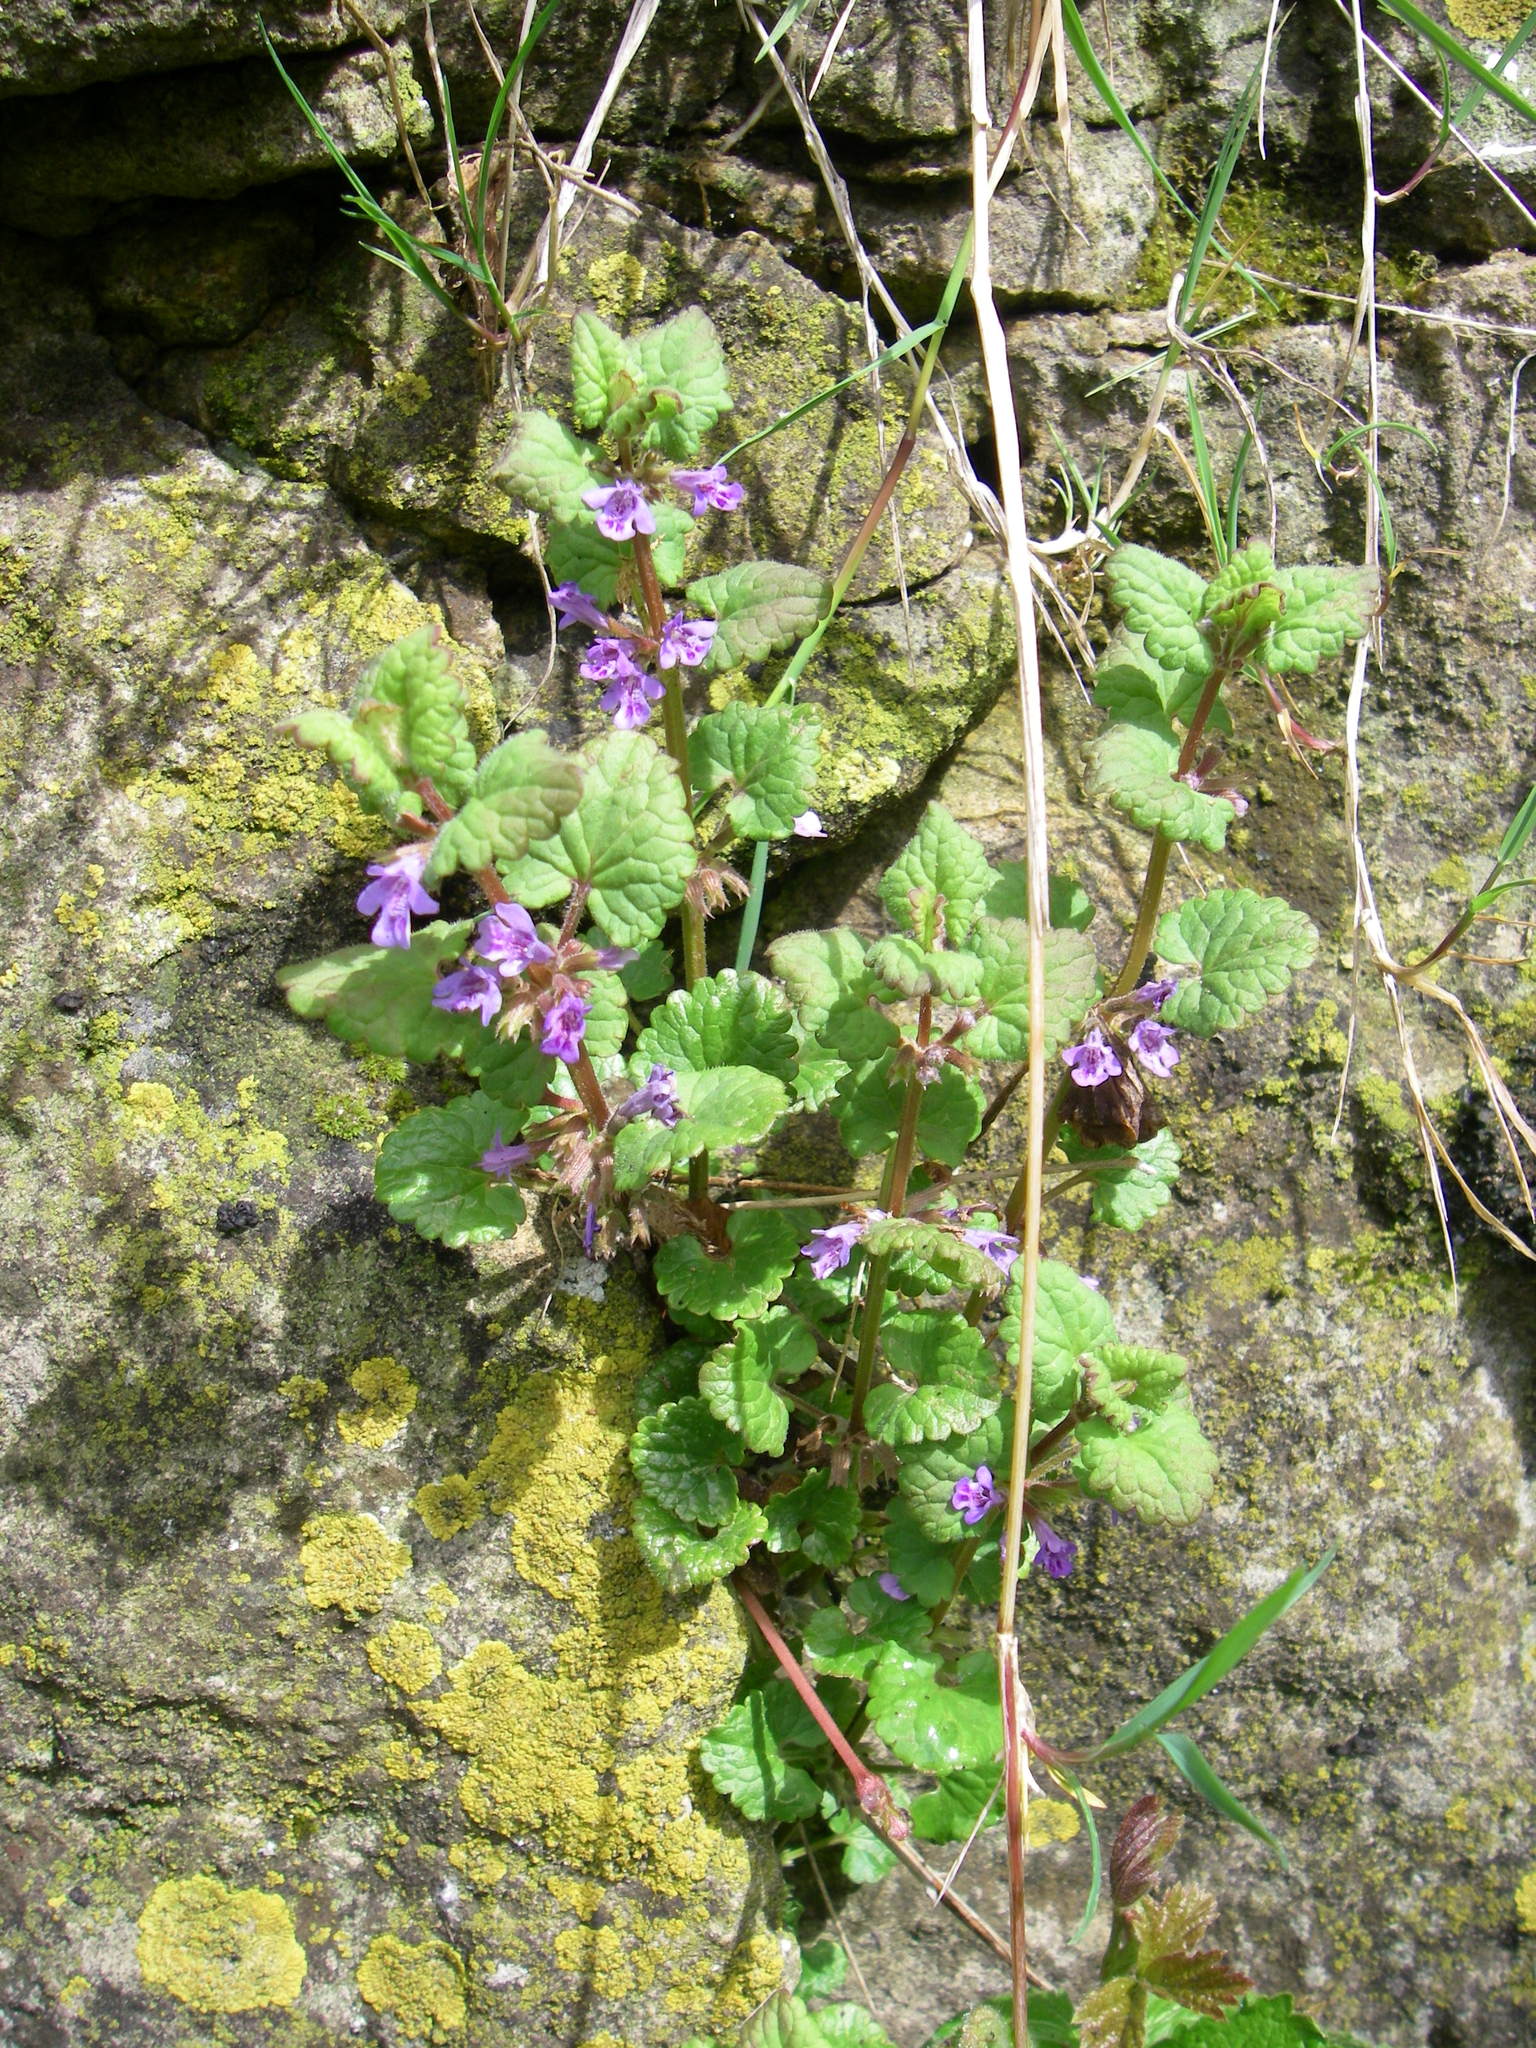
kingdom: Plantae
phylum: Tracheophyta
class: Magnoliopsida
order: Lamiales
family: Lamiaceae
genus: Glechoma
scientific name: Glechoma hederacea
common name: Ground ivy
